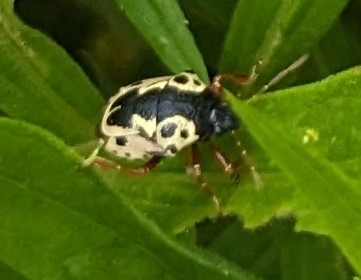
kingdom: Animalia
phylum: Arthropoda
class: Insecta
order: Hemiptera
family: Pentatomidae
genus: Stiretrus
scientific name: Stiretrus anchorago
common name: Anchor stink bug
